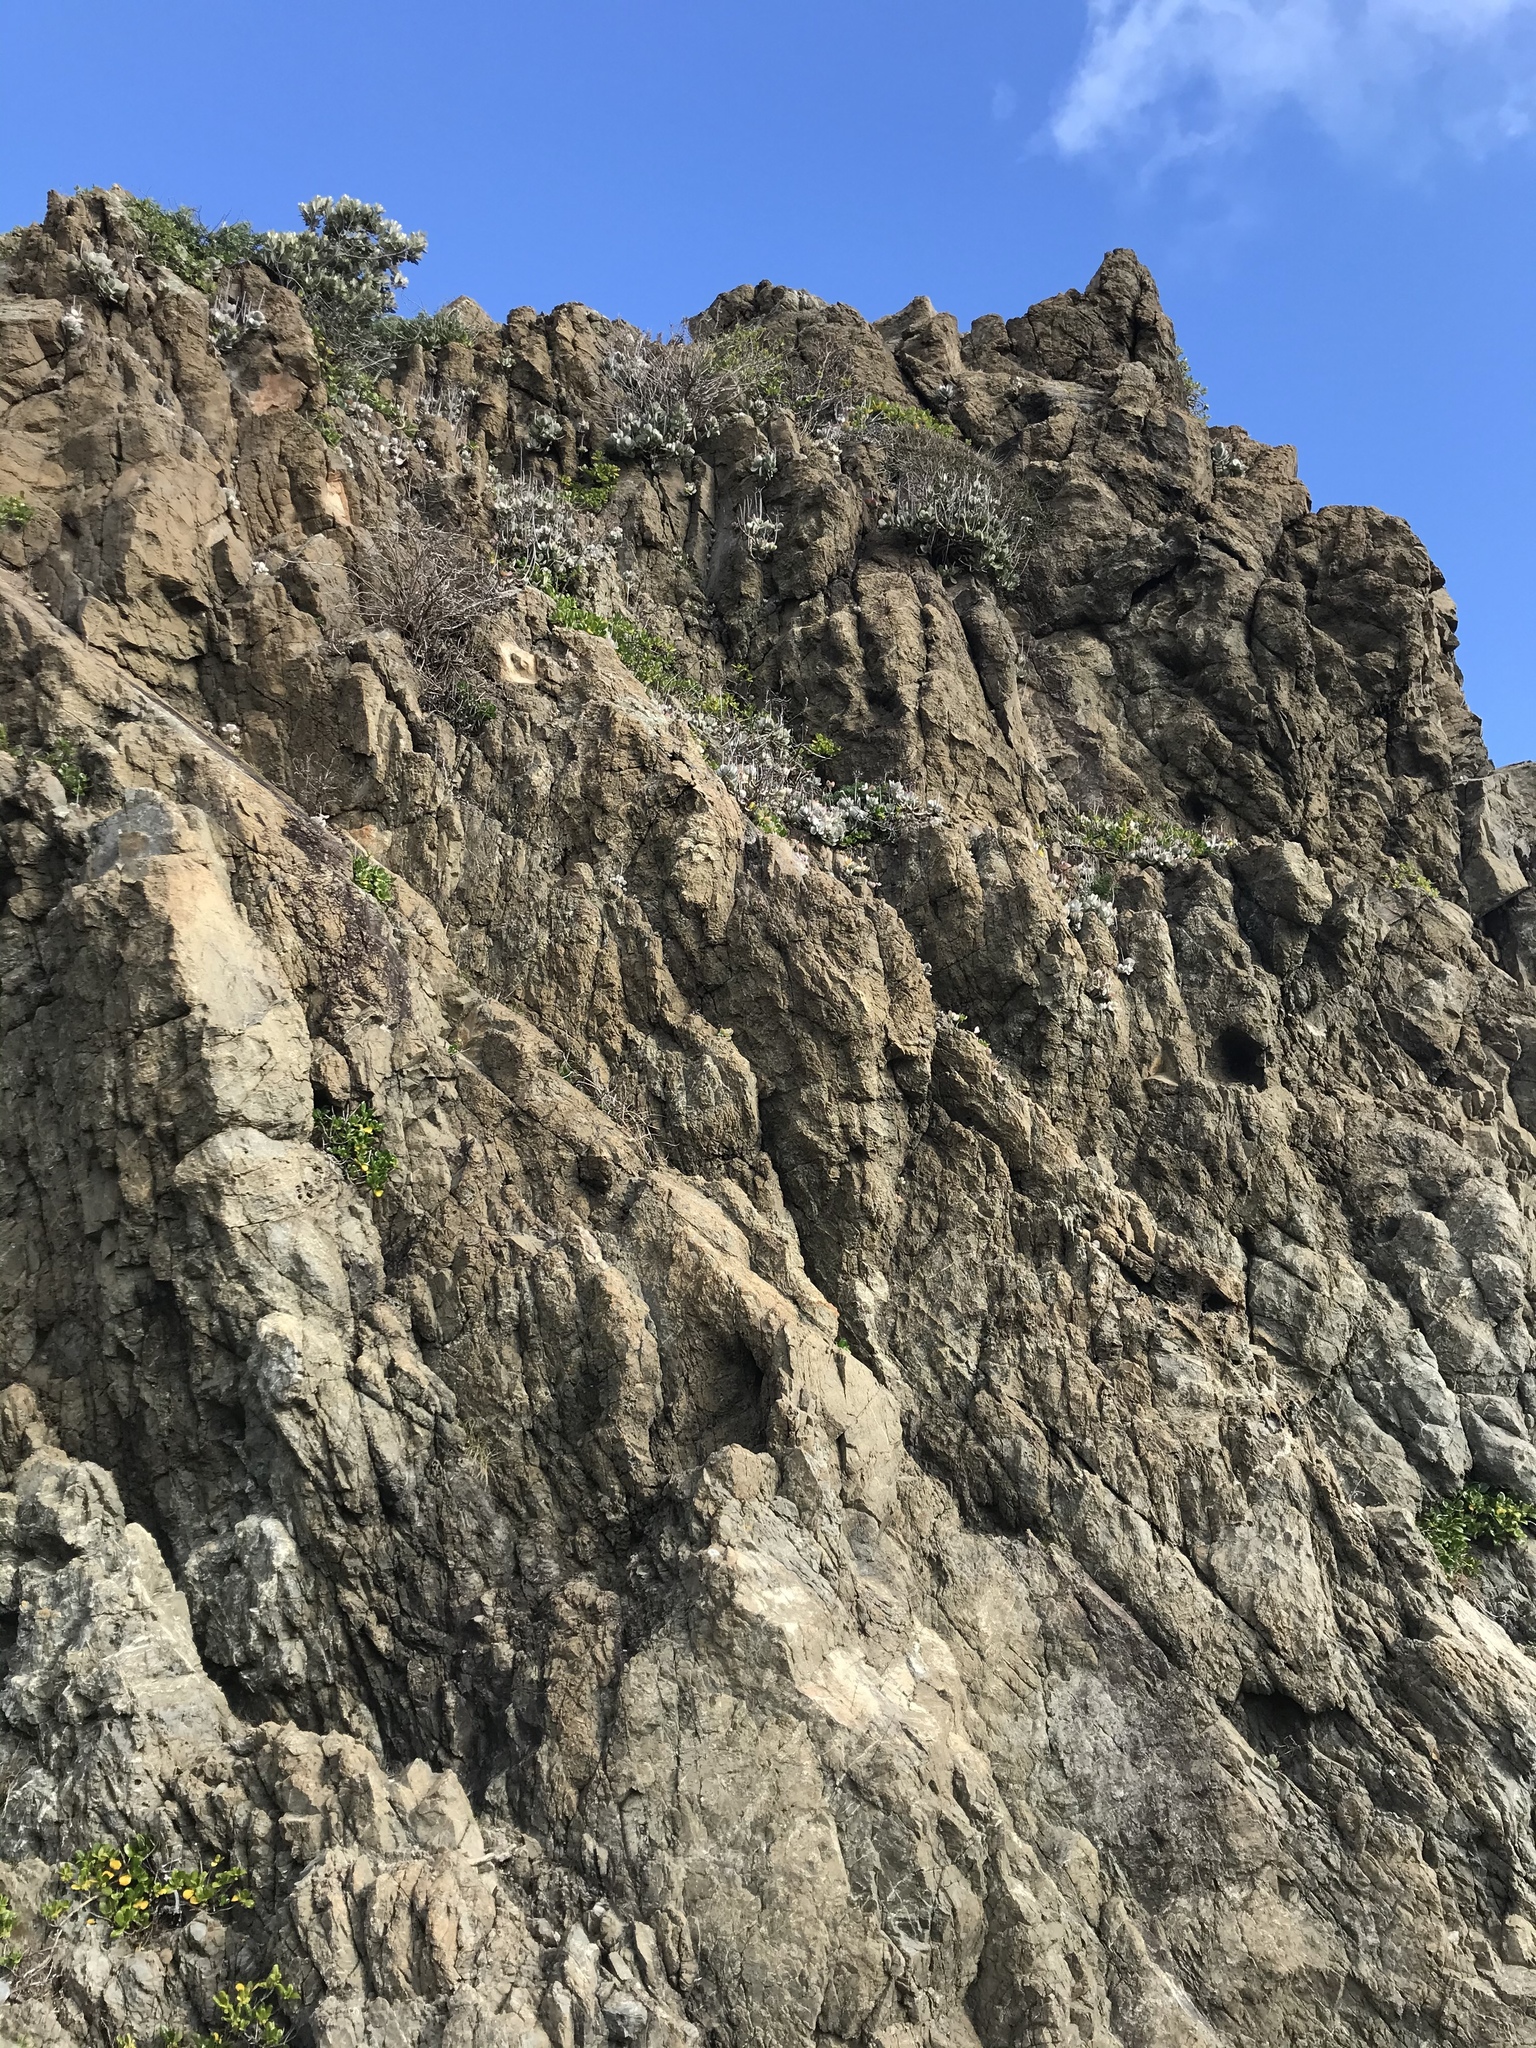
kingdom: Plantae
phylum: Tracheophyta
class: Magnoliopsida
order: Saxifragales
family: Crassulaceae
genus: Cotyledon
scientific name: Cotyledon orbiculata
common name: Pig's ear
